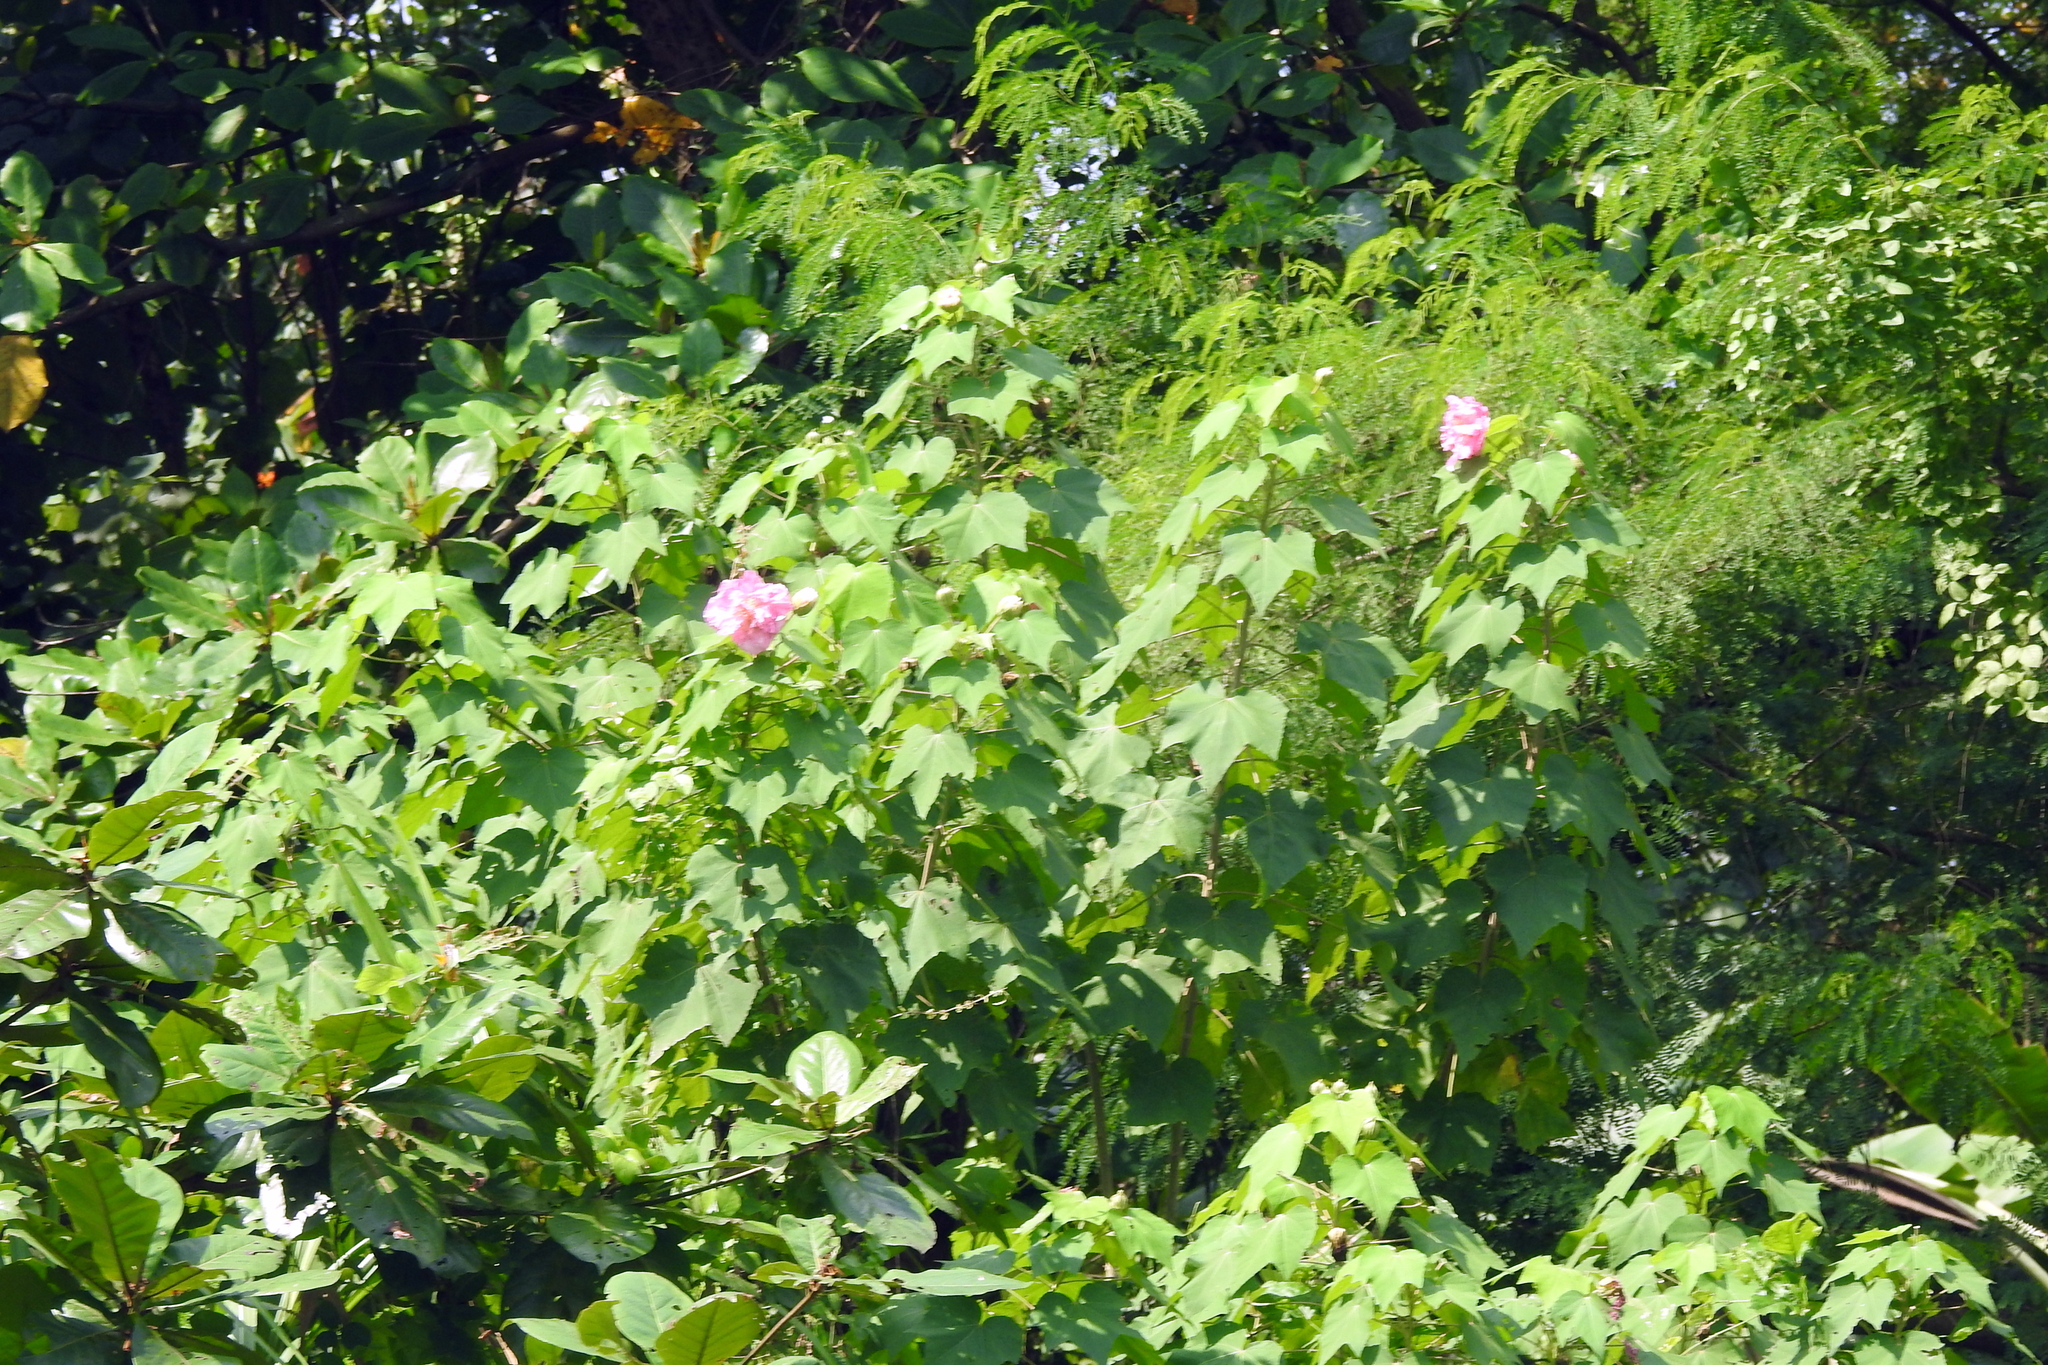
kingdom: Plantae
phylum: Tracheophyta
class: Magnoliopsida
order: Malvales
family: Malvaceae
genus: Hibiscus
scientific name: Hibiscus mutabilis
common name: Dixie rosemallow
